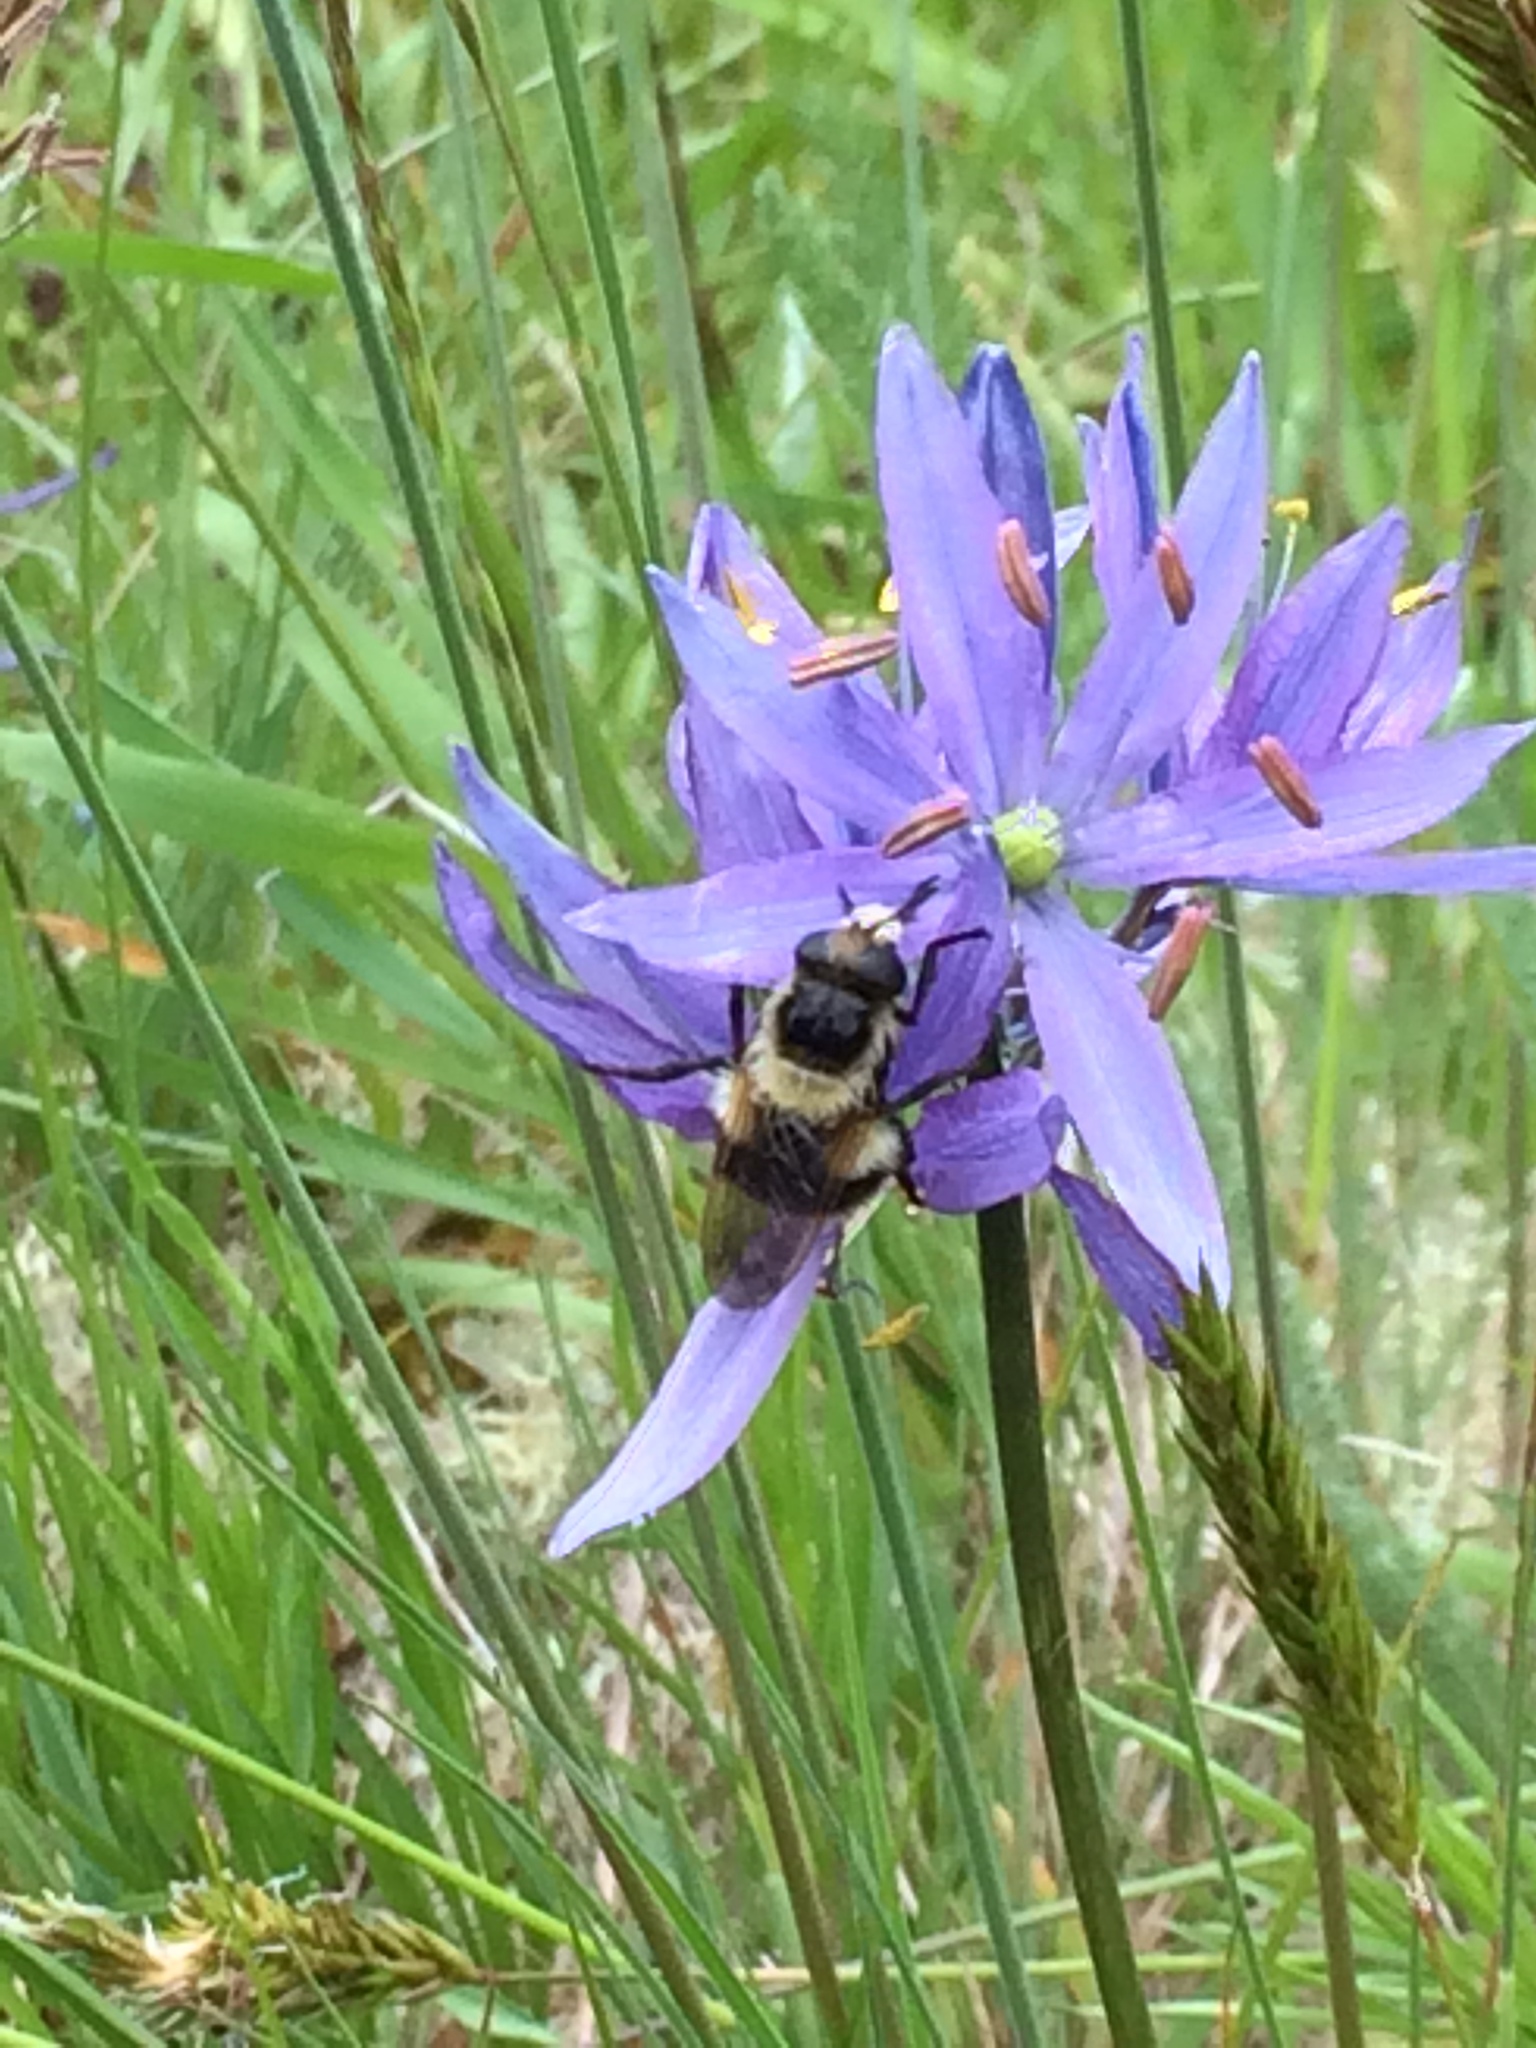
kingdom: Animalia
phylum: Arthropoda
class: Insecta
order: Diptera
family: Syrphidae
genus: Volucella
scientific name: Volucella facialis
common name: Yellow-faced swiftwing
